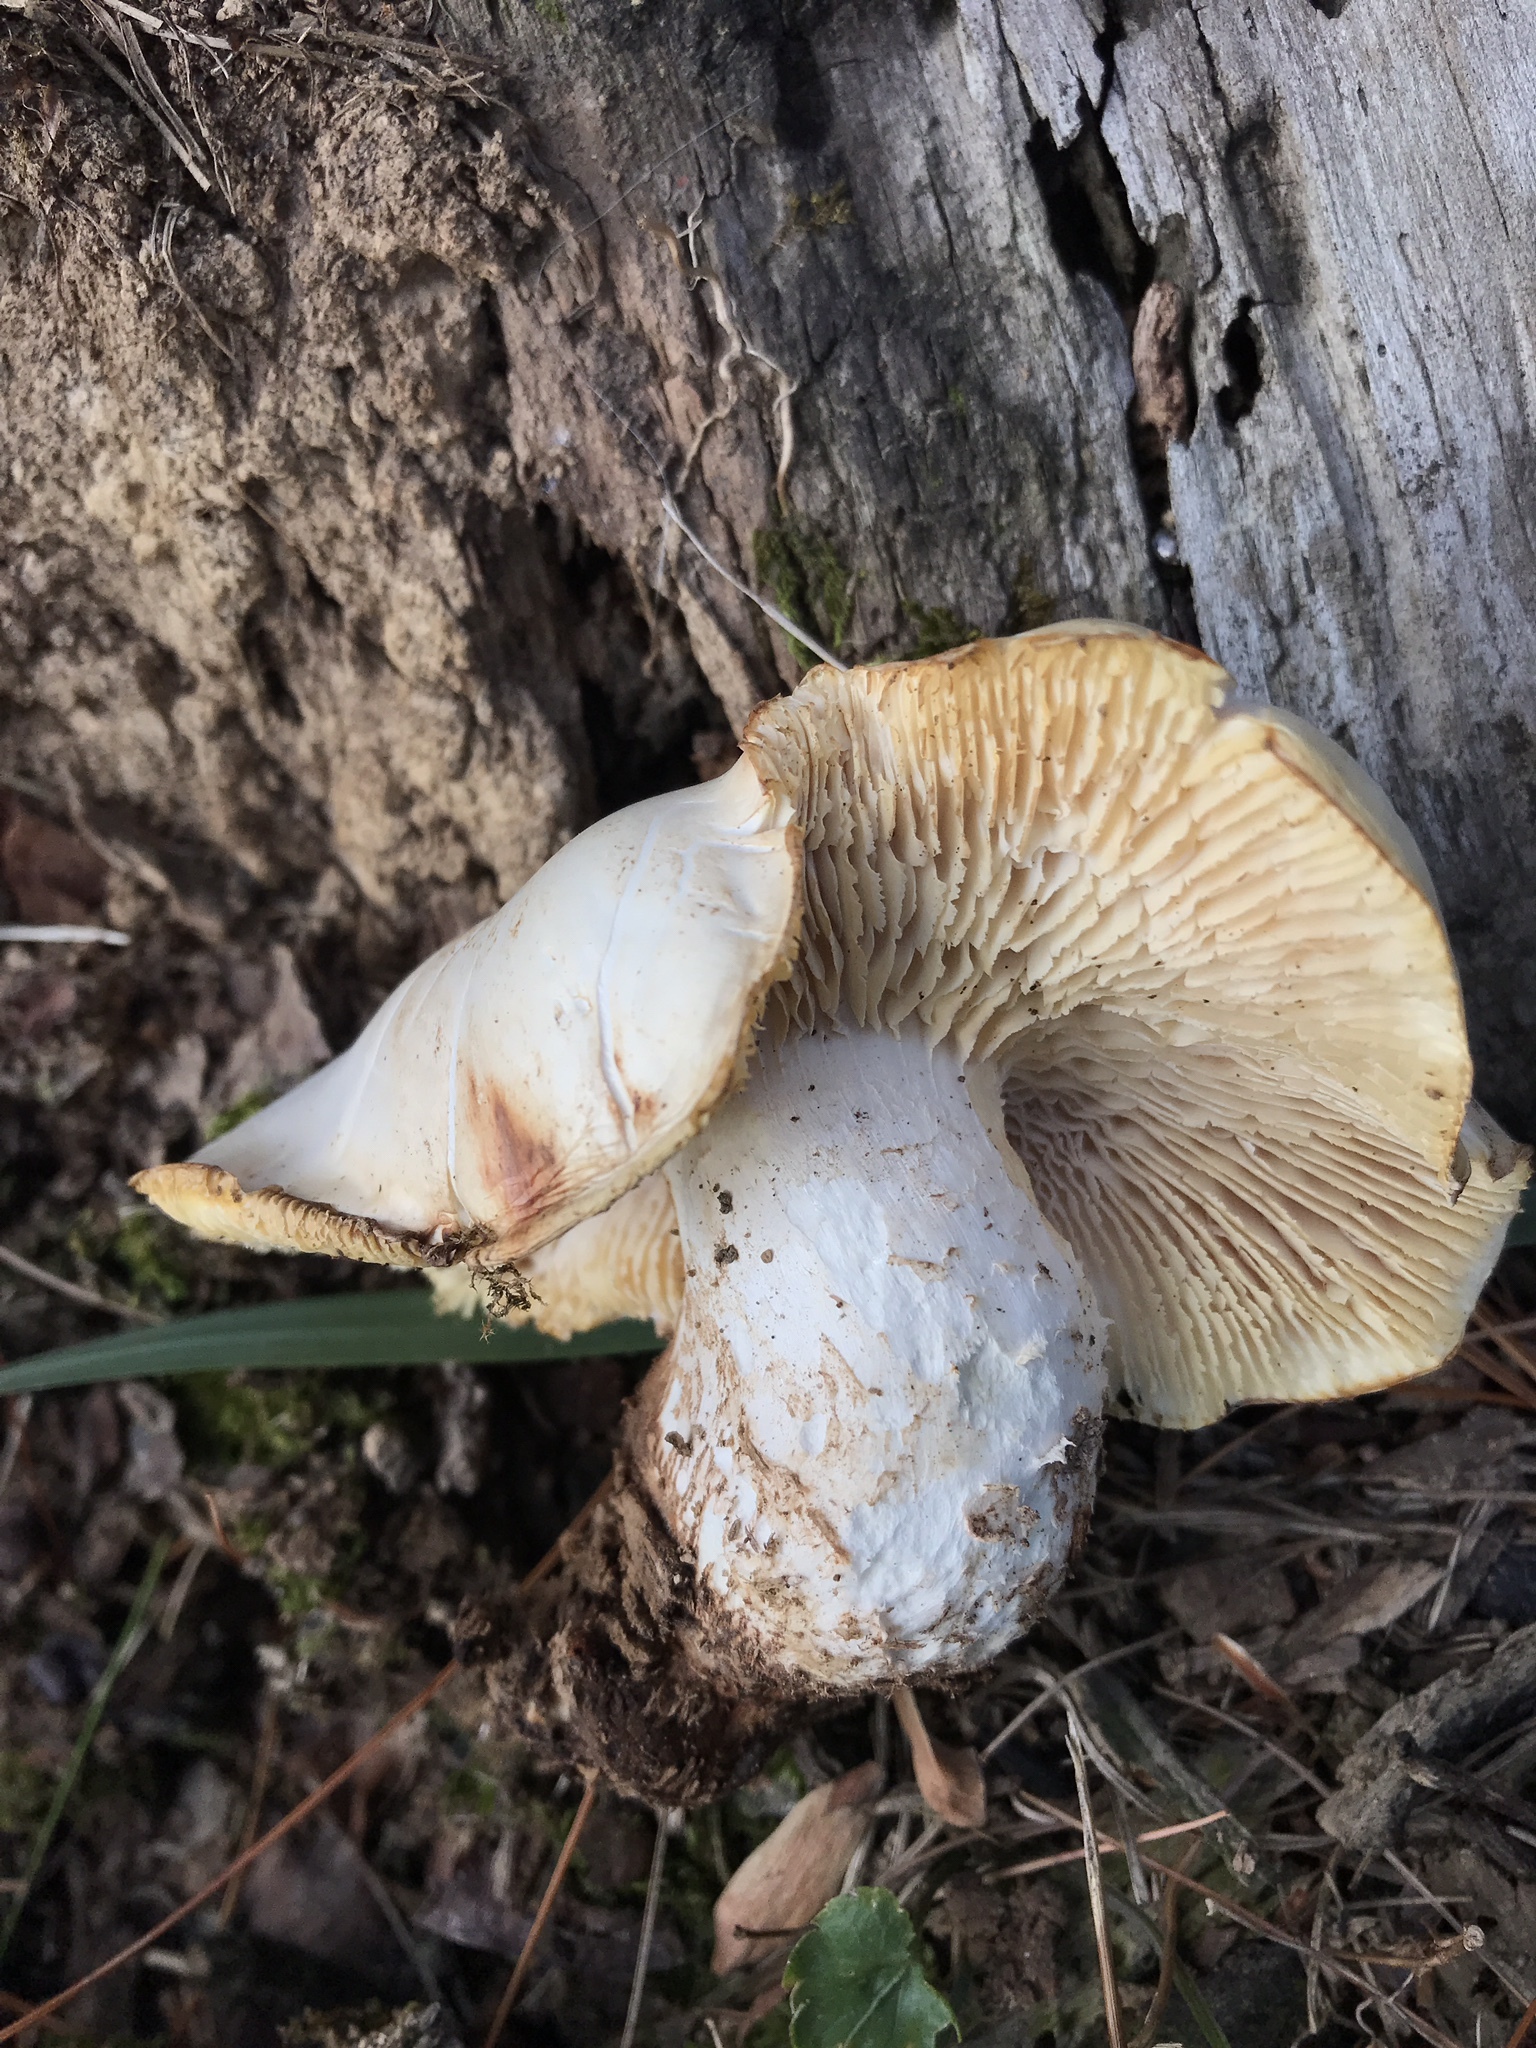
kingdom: Fungi
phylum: Basidiomycota
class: Agaricomycetes
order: Gloeophyllales
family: Gloeophyllaceae
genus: Neolentinus
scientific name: Neolentinus lepideus
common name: Scaly sawgill
